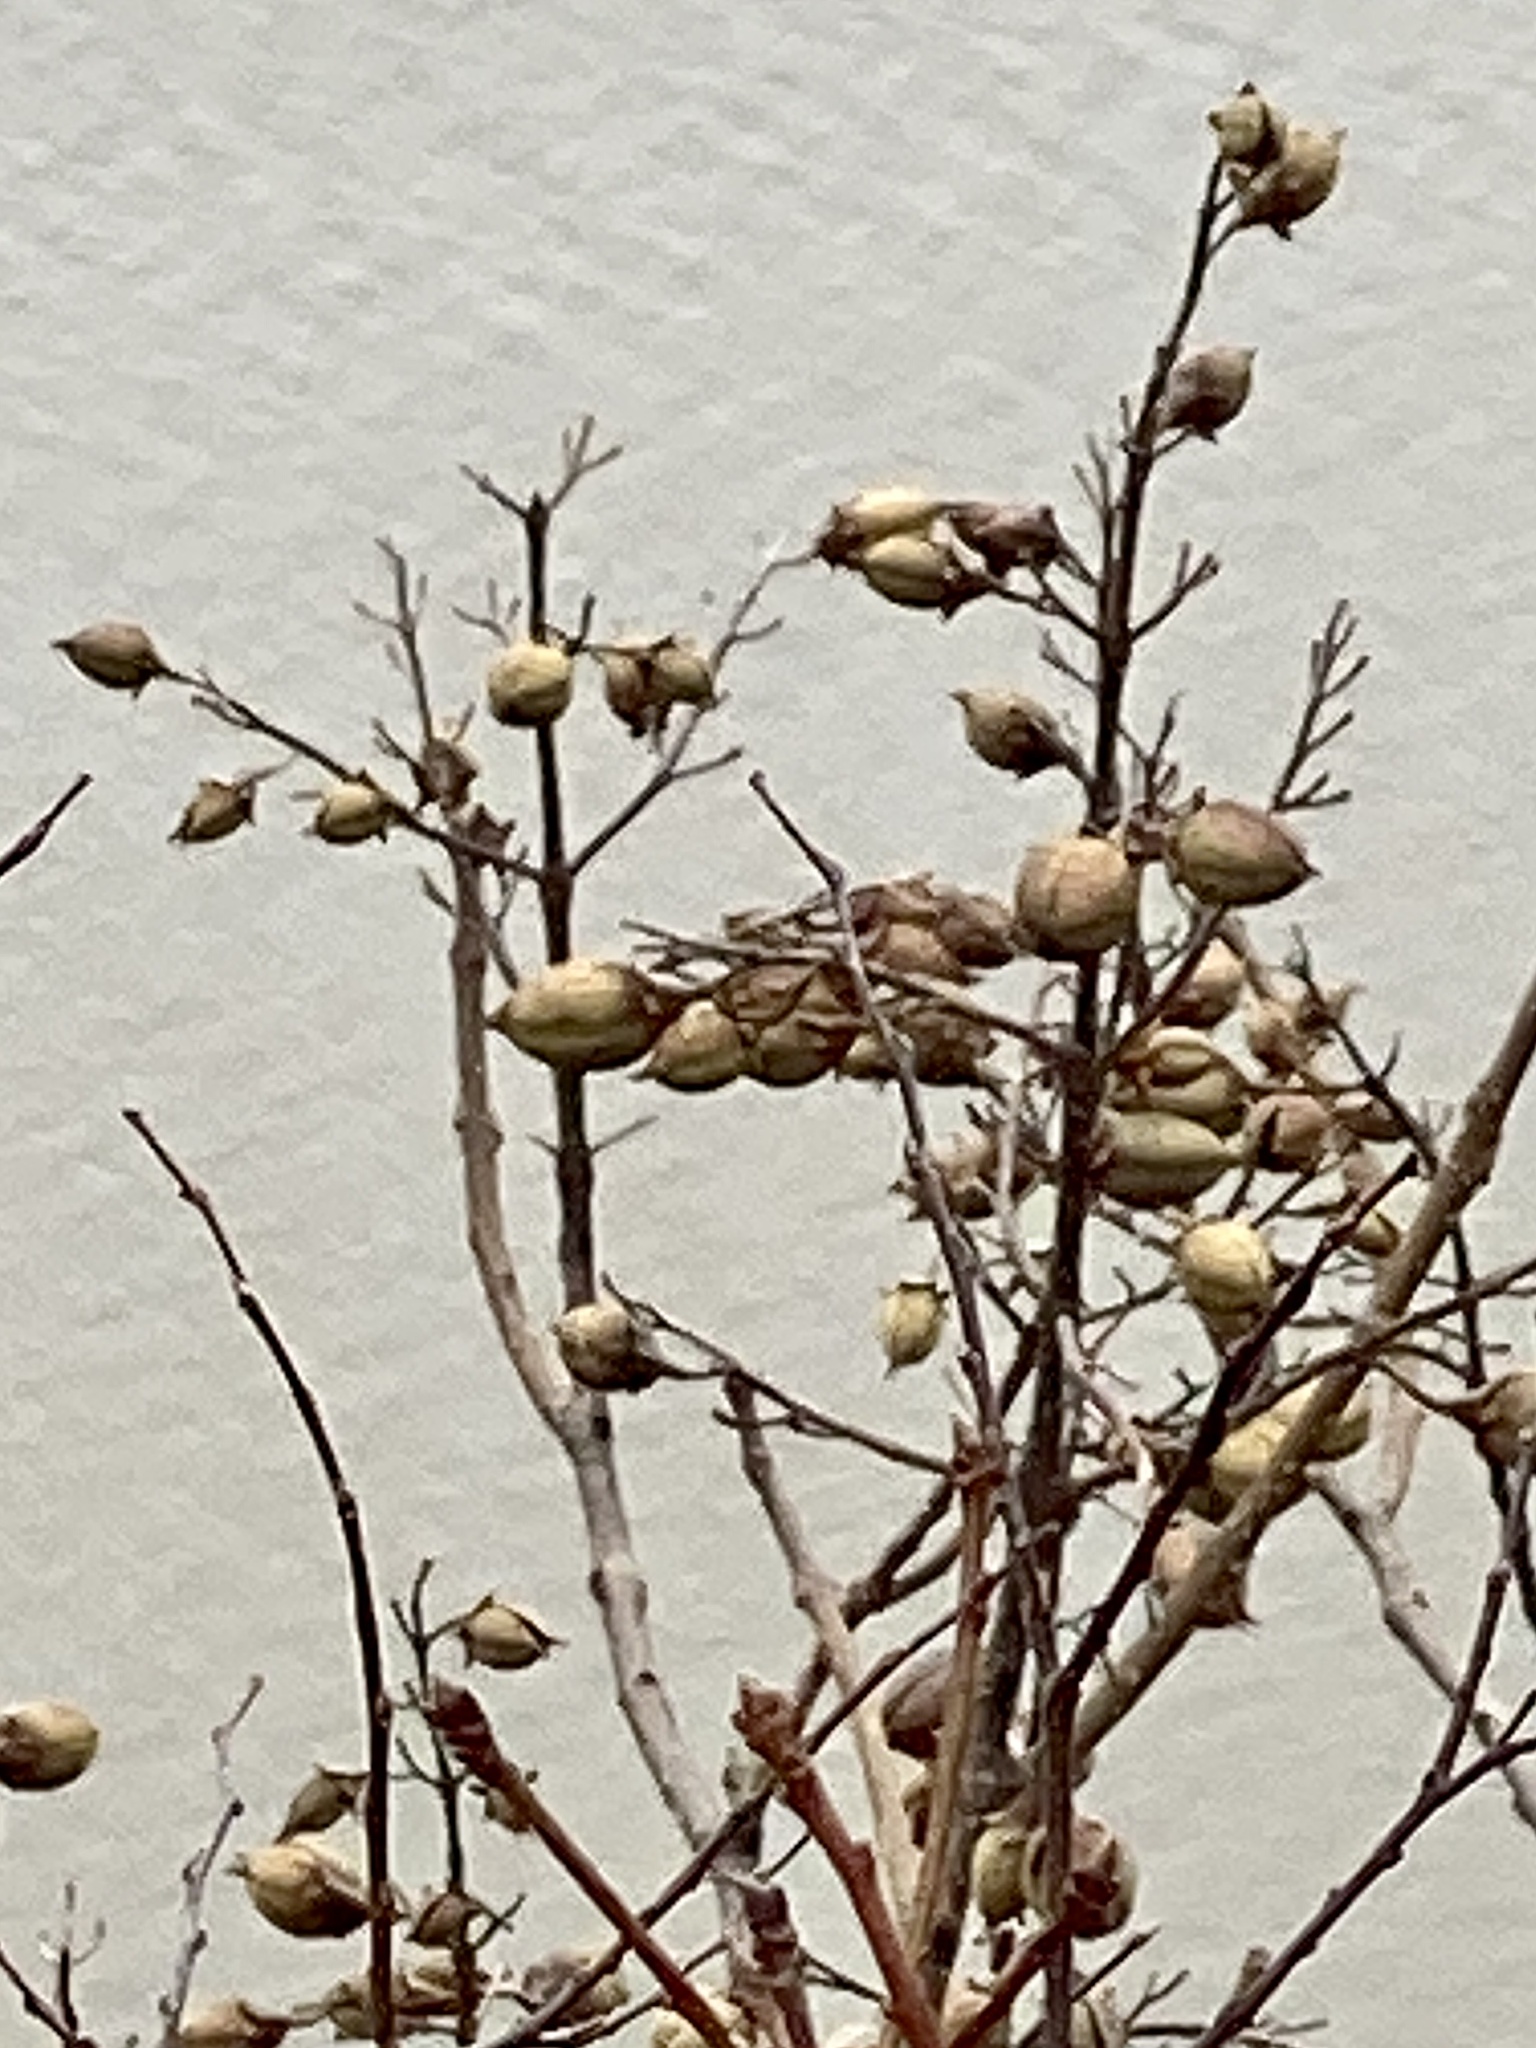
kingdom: Plantae
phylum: Tracheophyta
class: Magnoliopsida
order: Lamiales
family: Paulowniaceae
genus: Paulownia
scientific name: Paulownia tomentosa
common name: Foxglove-tree
